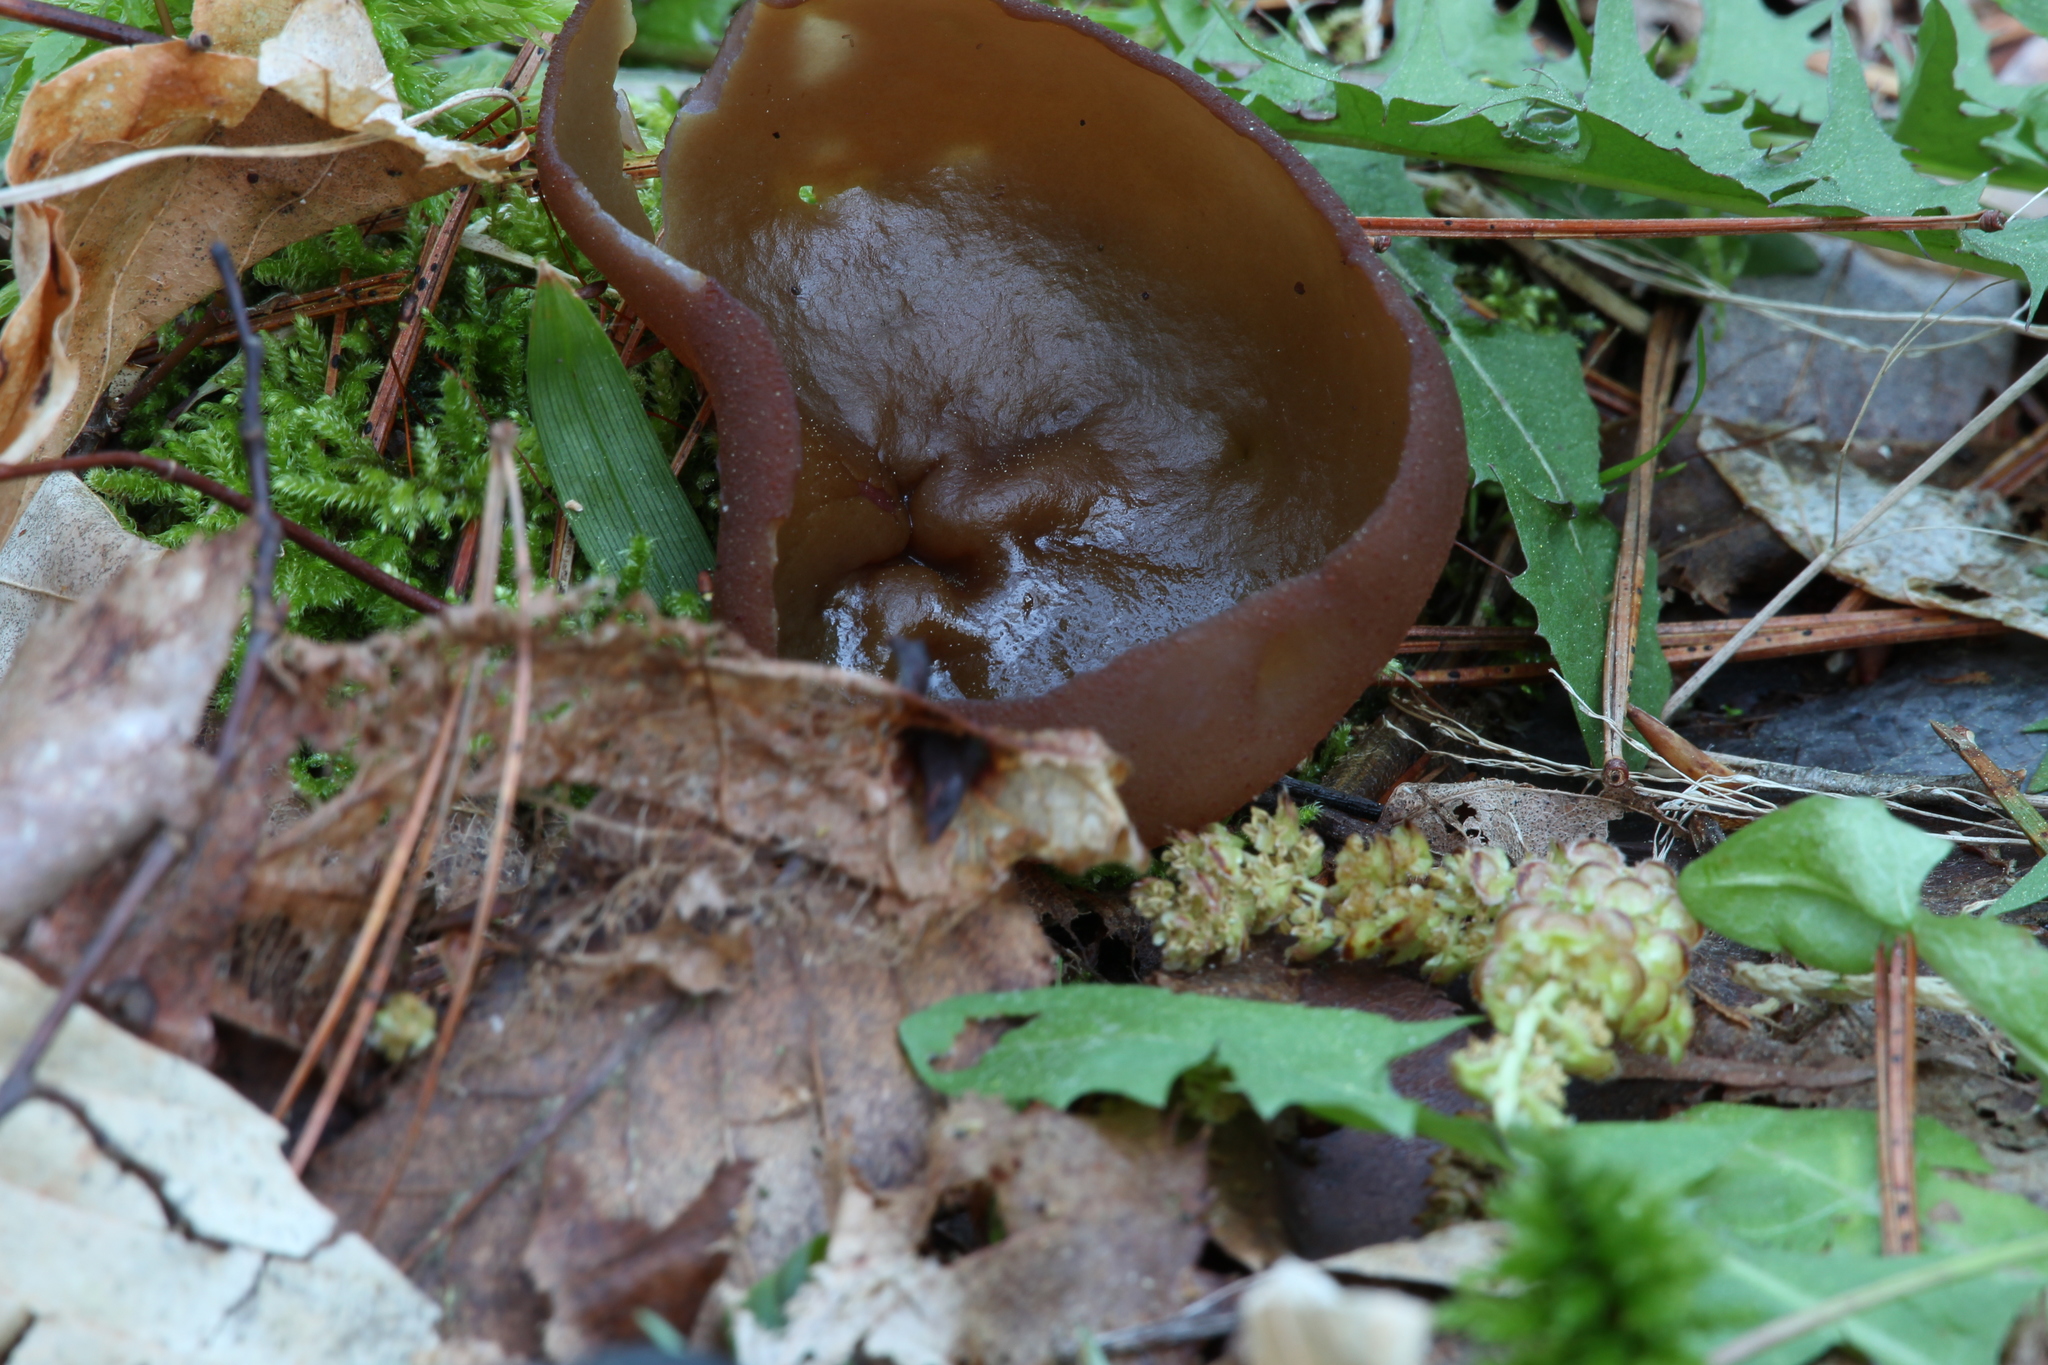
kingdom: Fungi
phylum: Ascomycota
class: Pezizomycetes
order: Pezizales
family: Pezizaceae
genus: Phylloscypha
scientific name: Phylloscypha phyllogena
